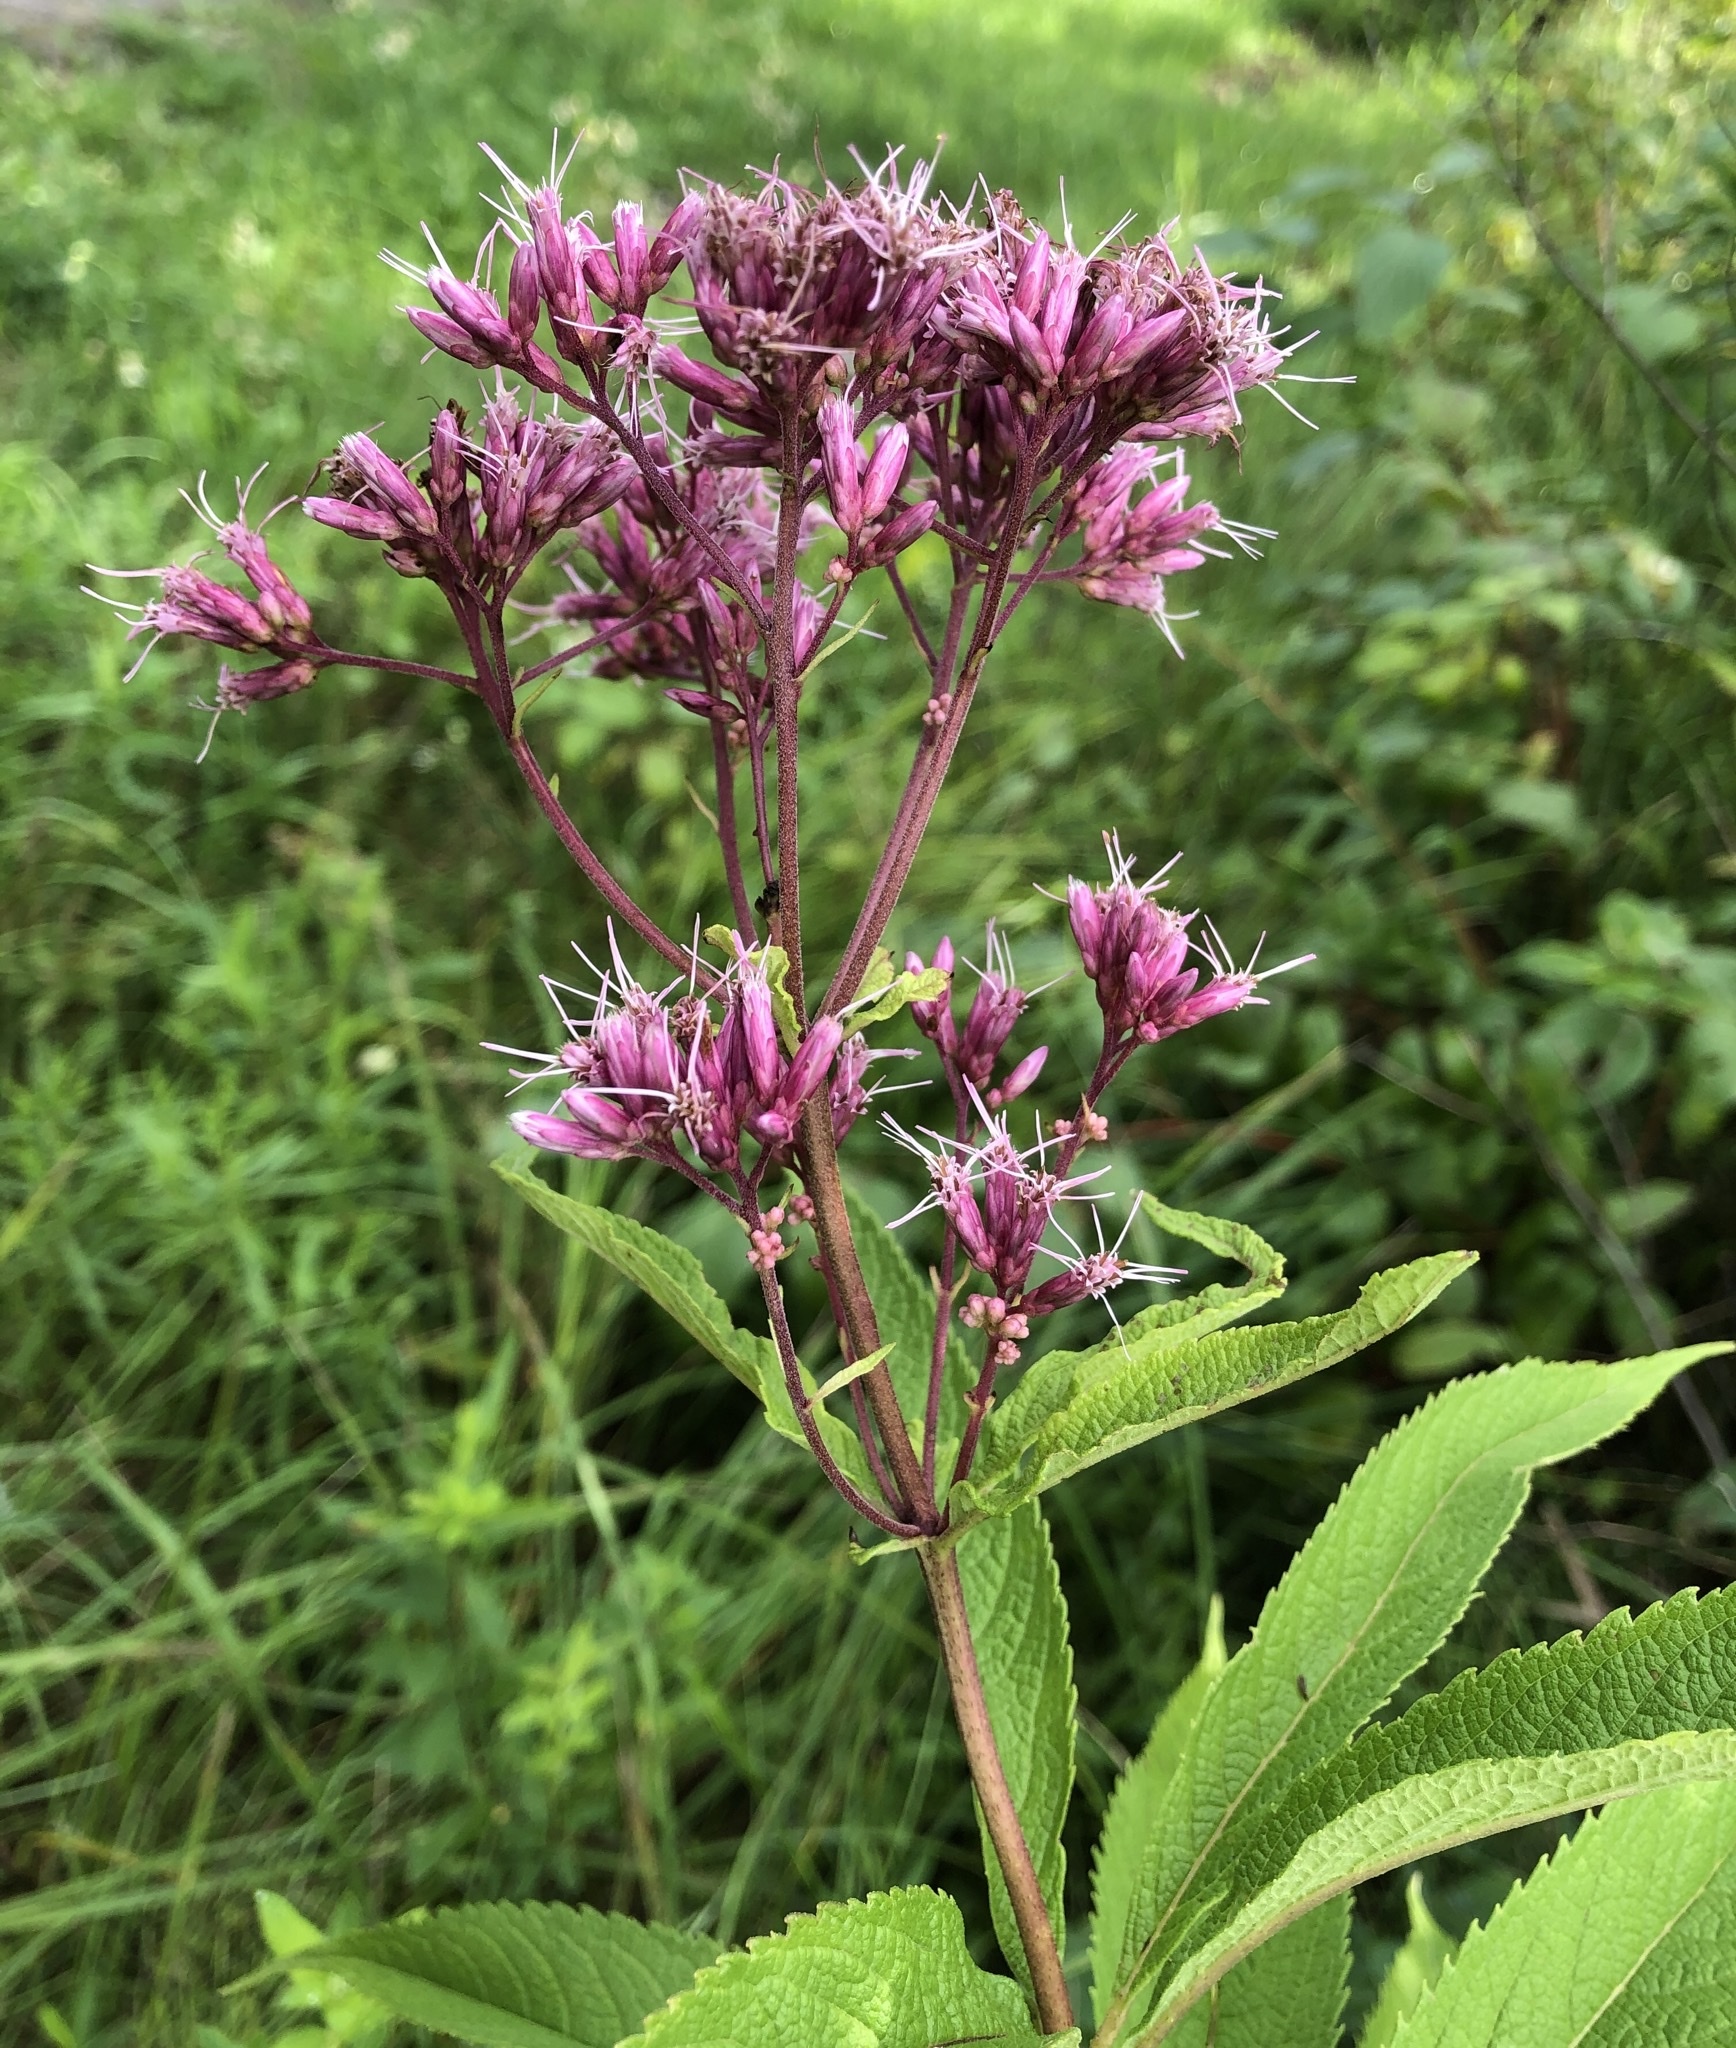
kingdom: Plantae
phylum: Tracheophyta
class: Magnoliopsida
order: Asterales
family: Asteraceae
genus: Eutrochium
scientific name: Eutrochium maculatum
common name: Spotted joe pye weed
